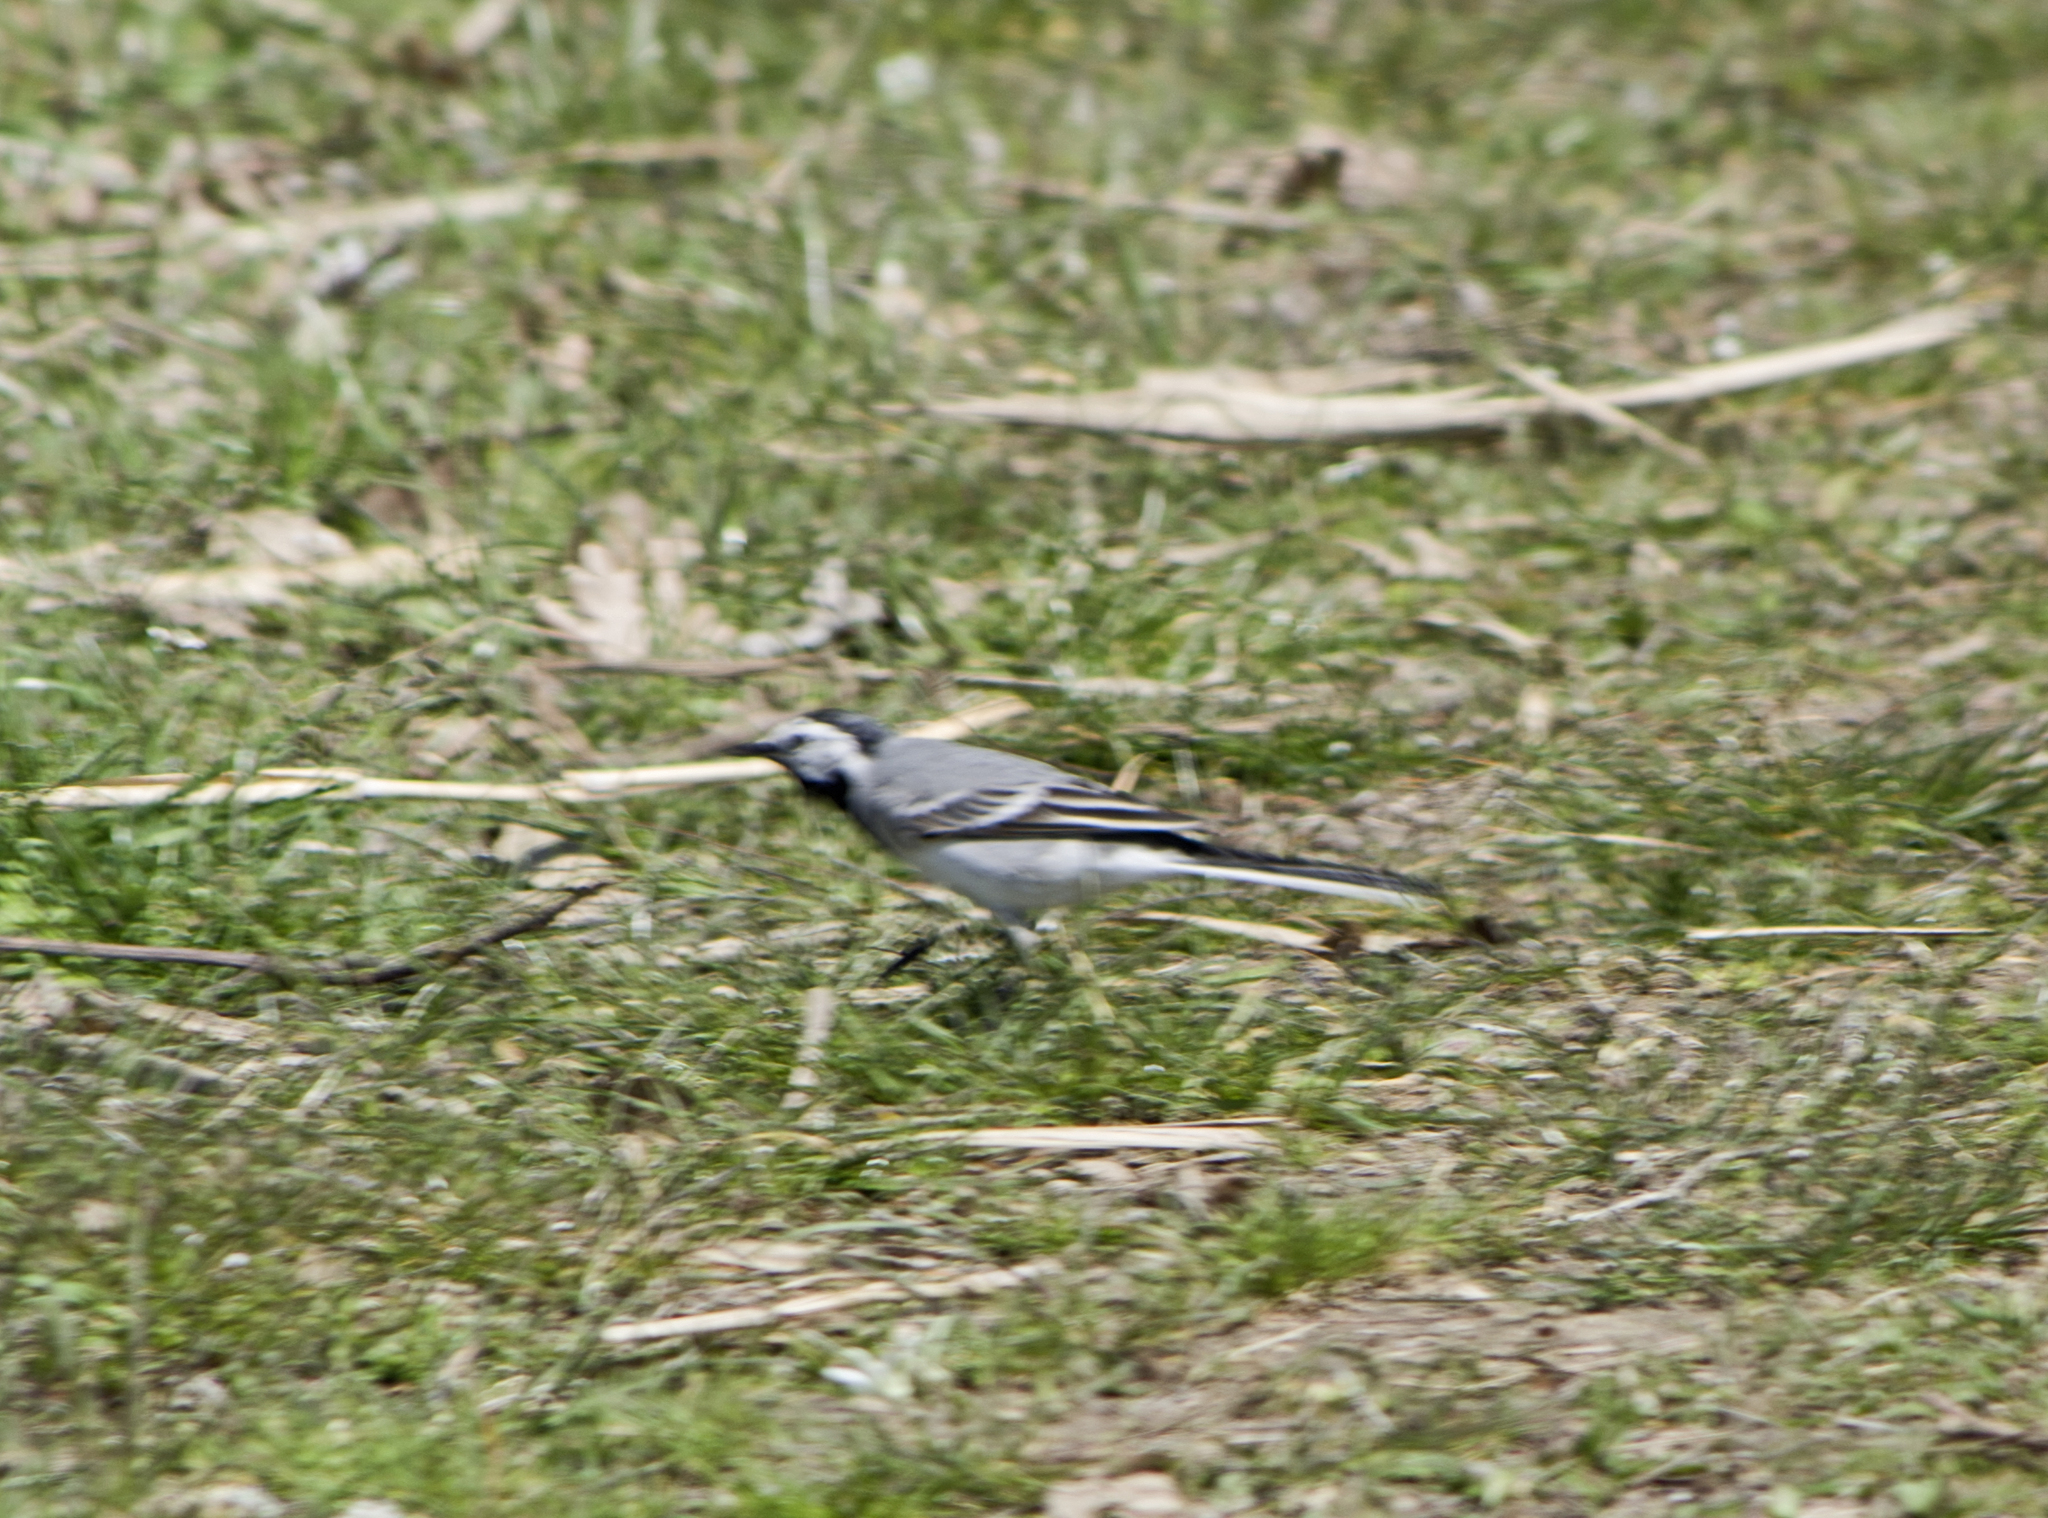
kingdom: Animalia
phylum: Chordata
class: Aves
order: Passeriformes
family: Motacillidae
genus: Motacilla
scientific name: Motacilla alba
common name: White wagtail
